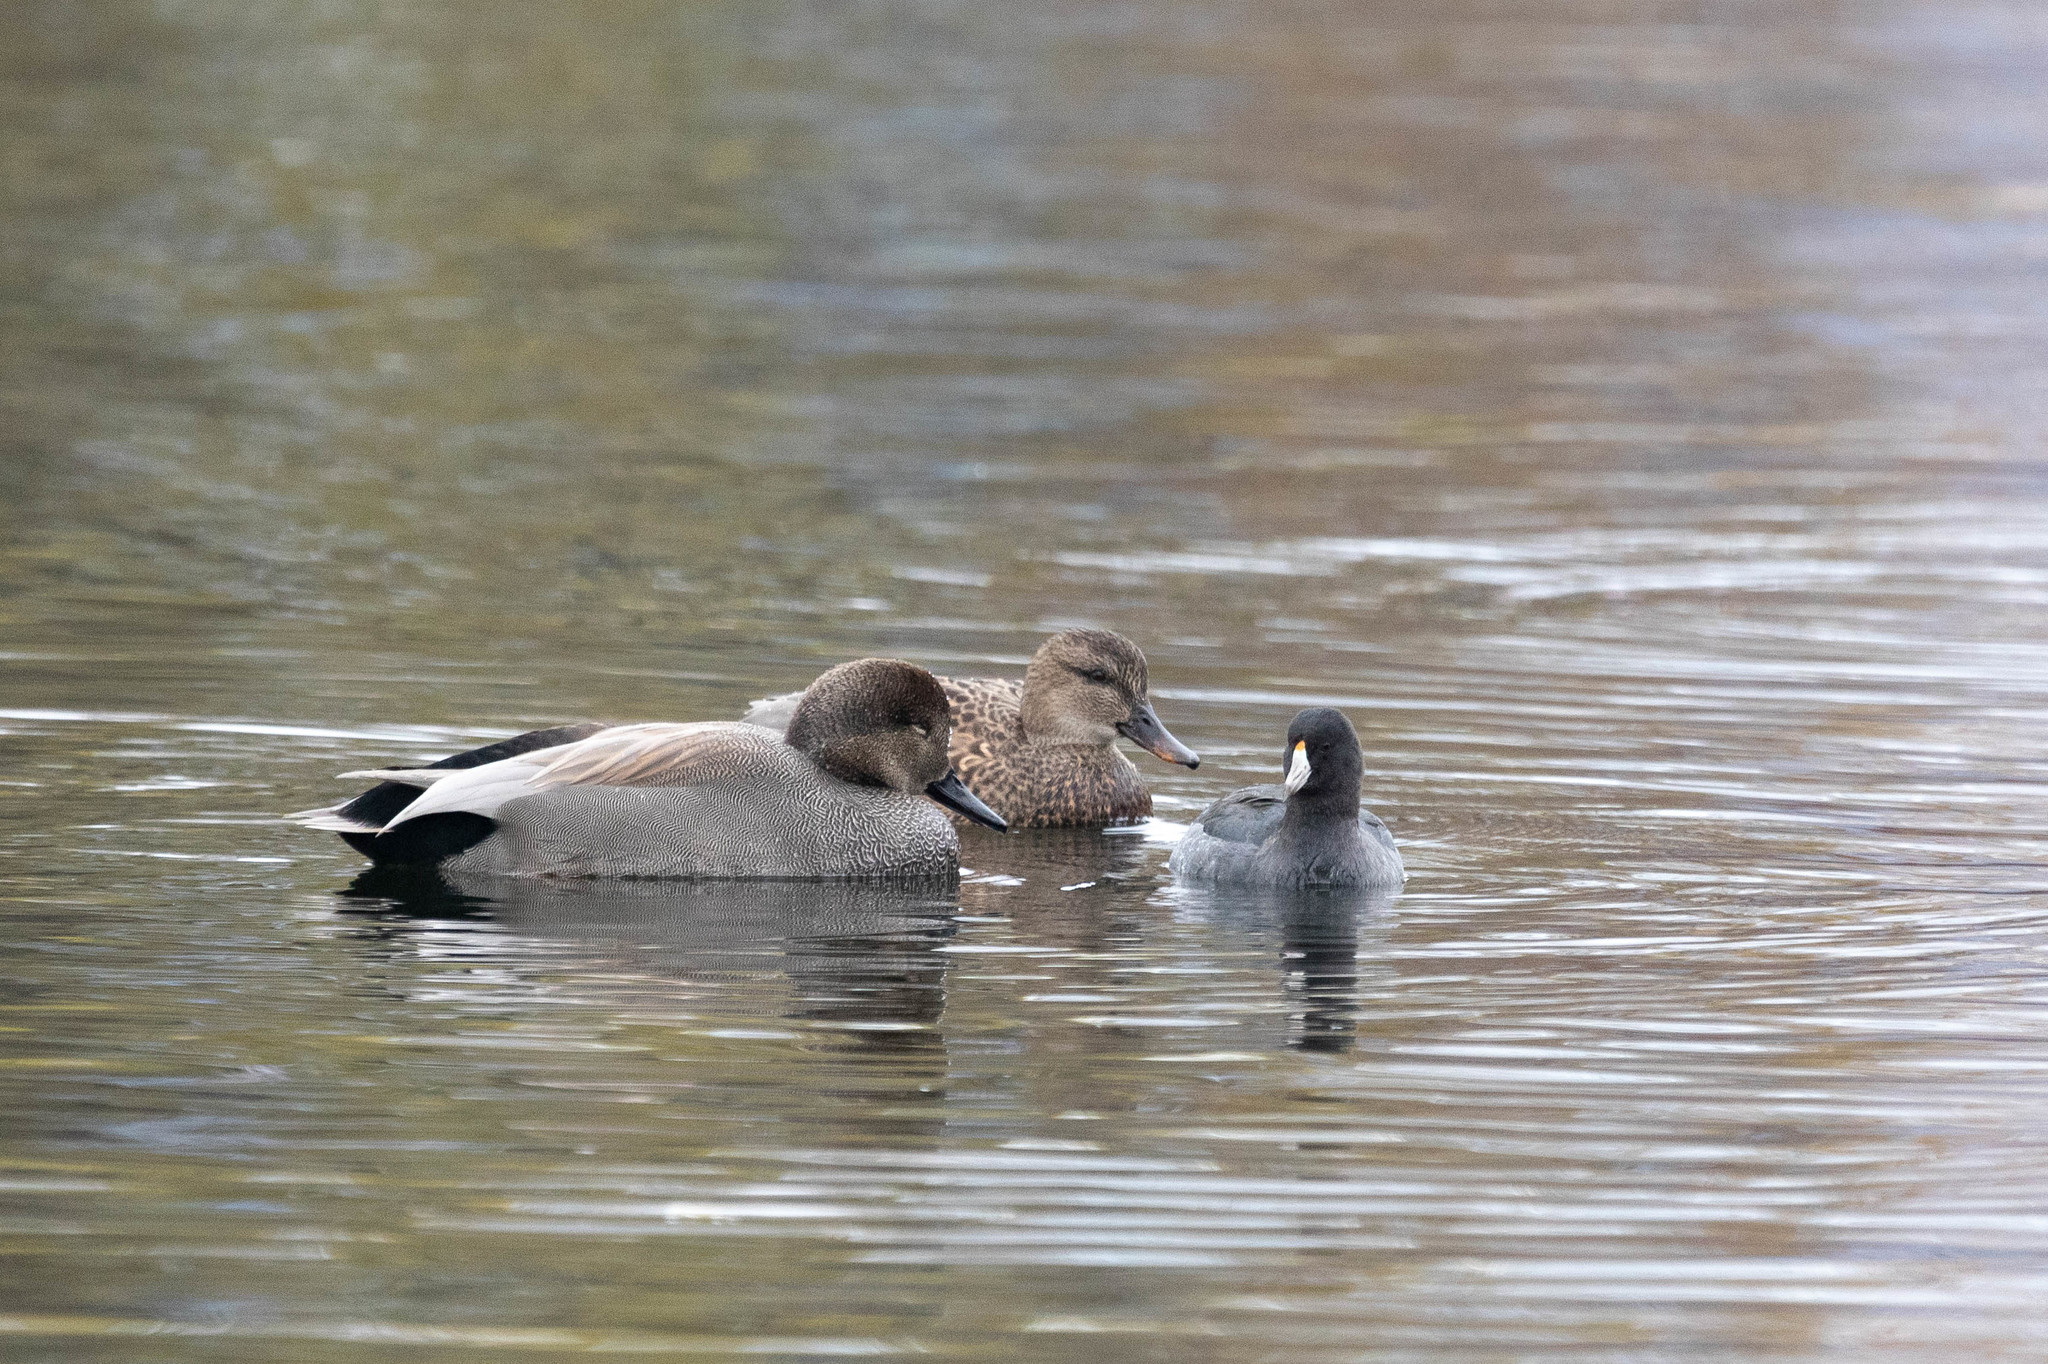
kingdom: Animalia
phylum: Chordata
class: Aves
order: Anseriformes
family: Anatidae
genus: Mareca
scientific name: Mareca strepera
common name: Gadwall
